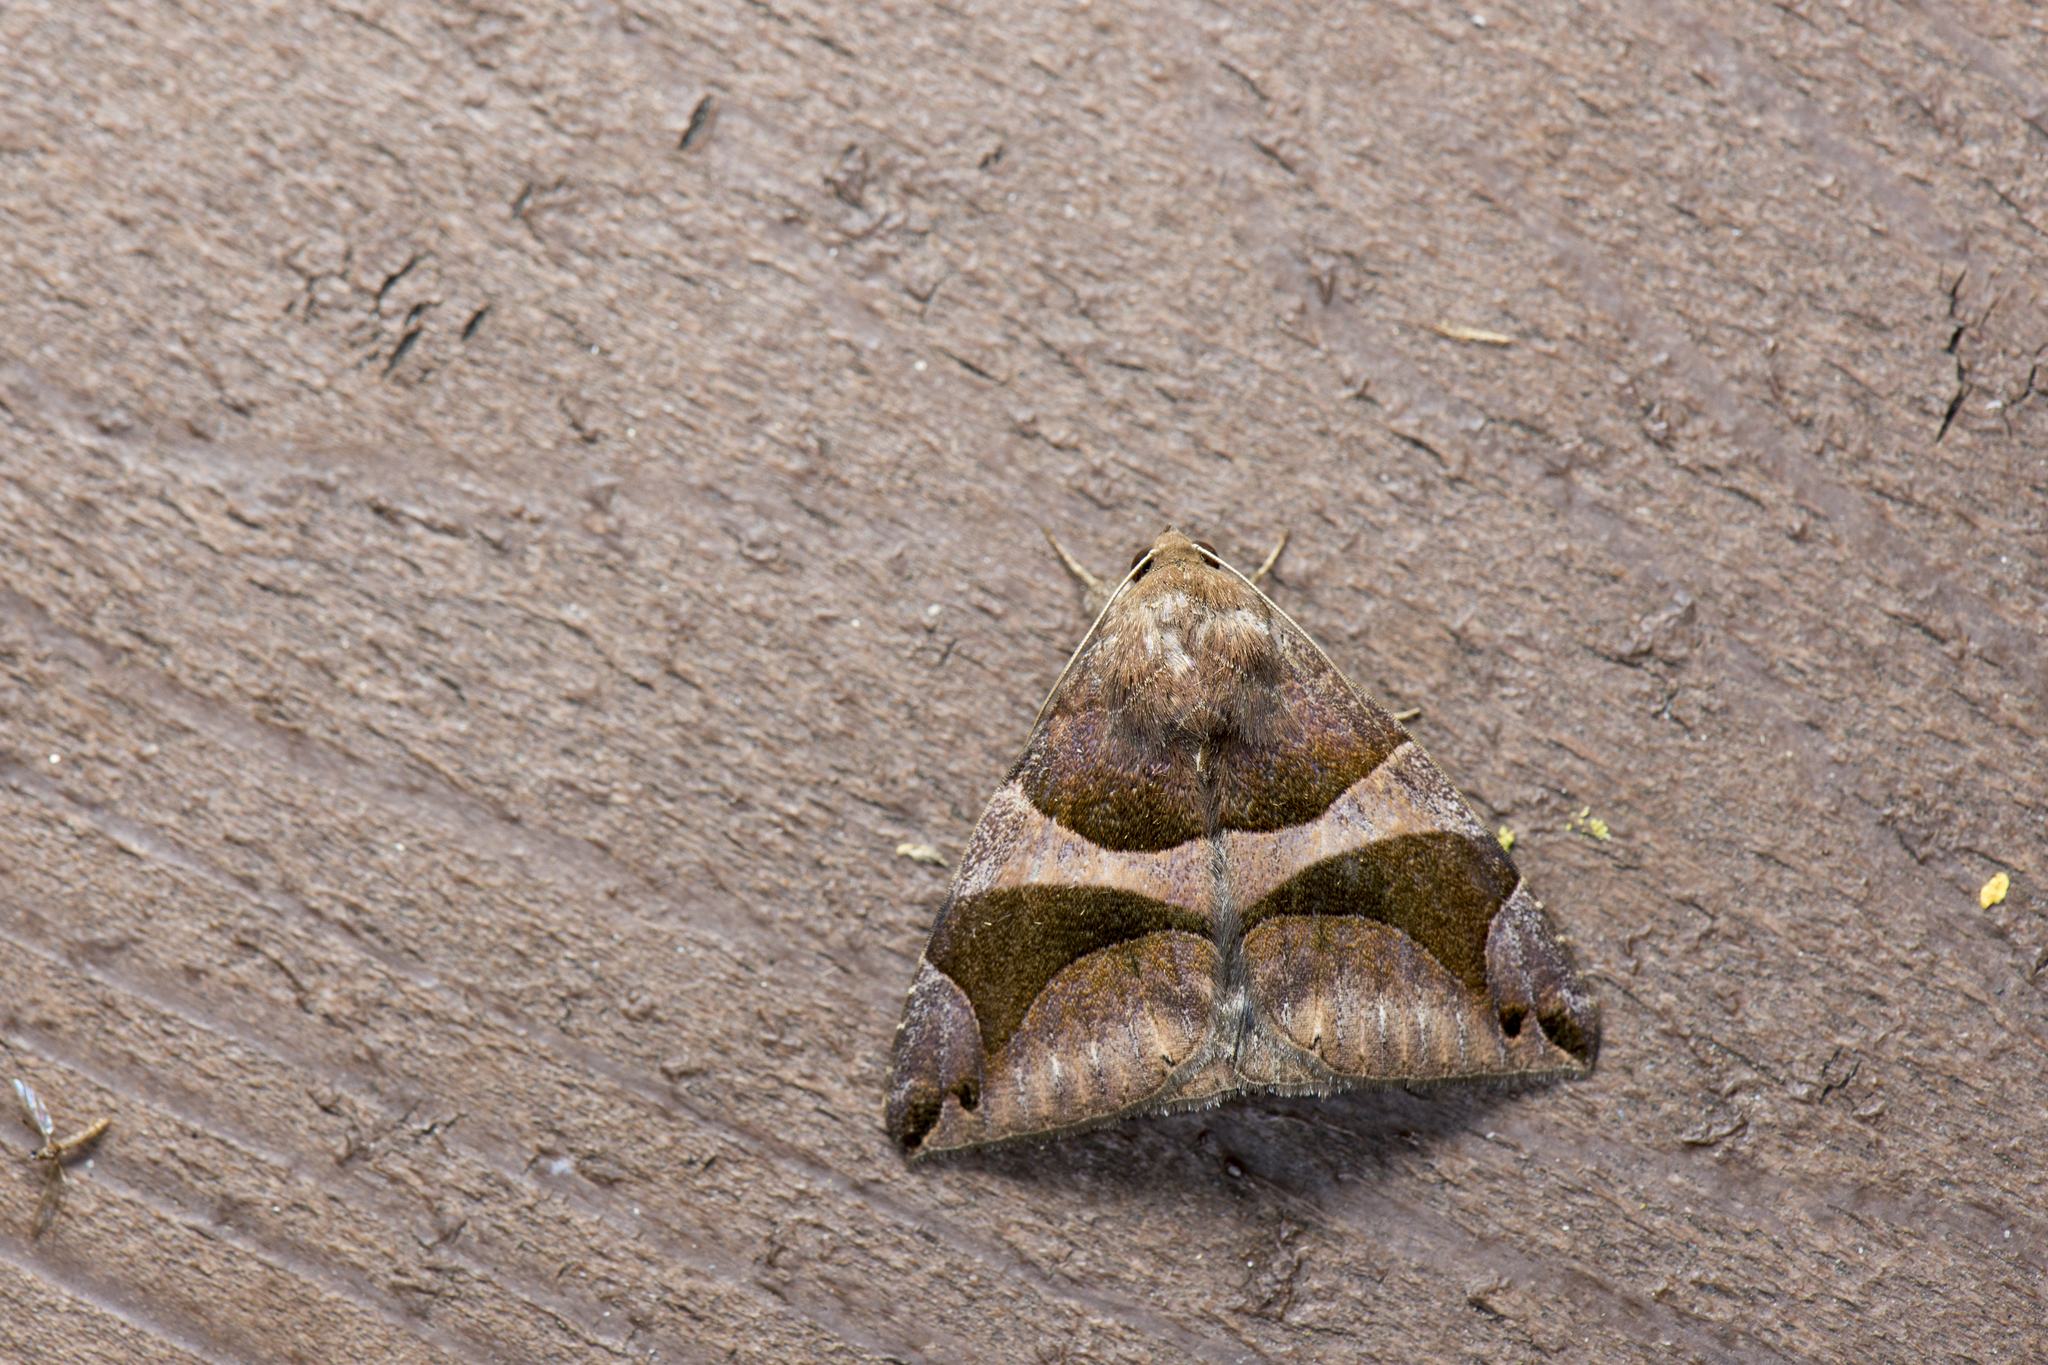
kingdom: Animalia
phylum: Arthropoda
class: Insecta
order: Lepidoptera
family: Erebidae
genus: Bastilla
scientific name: Bastilla arcuata
